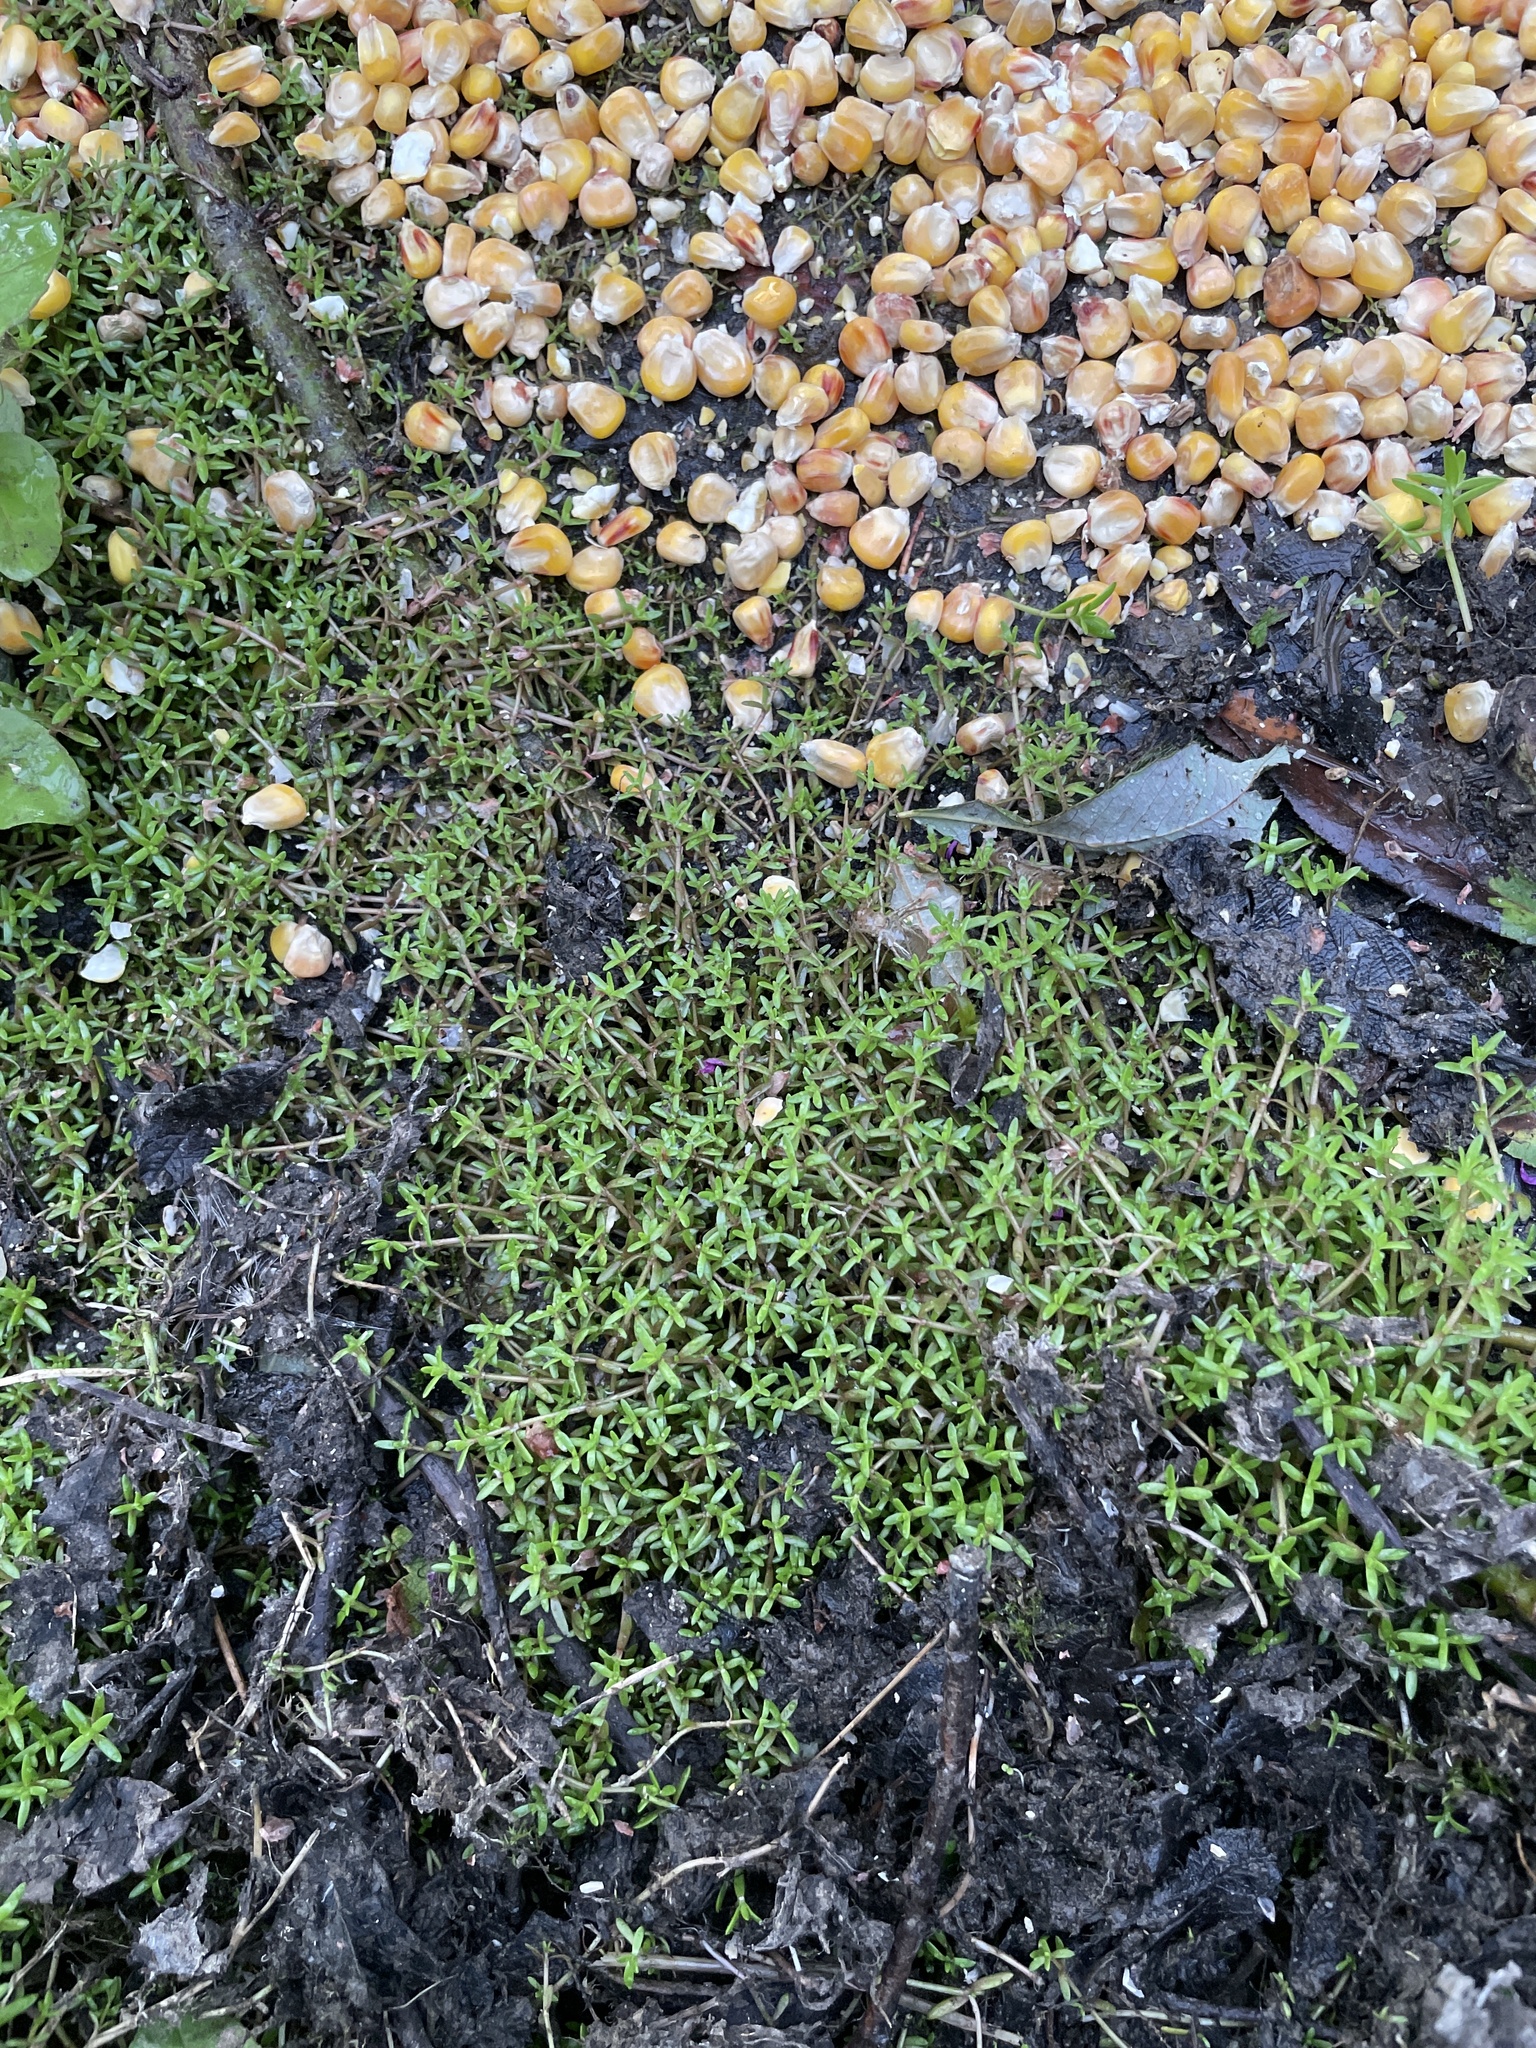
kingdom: Plantae
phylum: Tracheophyta
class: Magnoliopsida
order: Saxifragales
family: Crassulaceae
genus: Crassula
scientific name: Crassula helmsii
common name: New zealand pigmyweed
